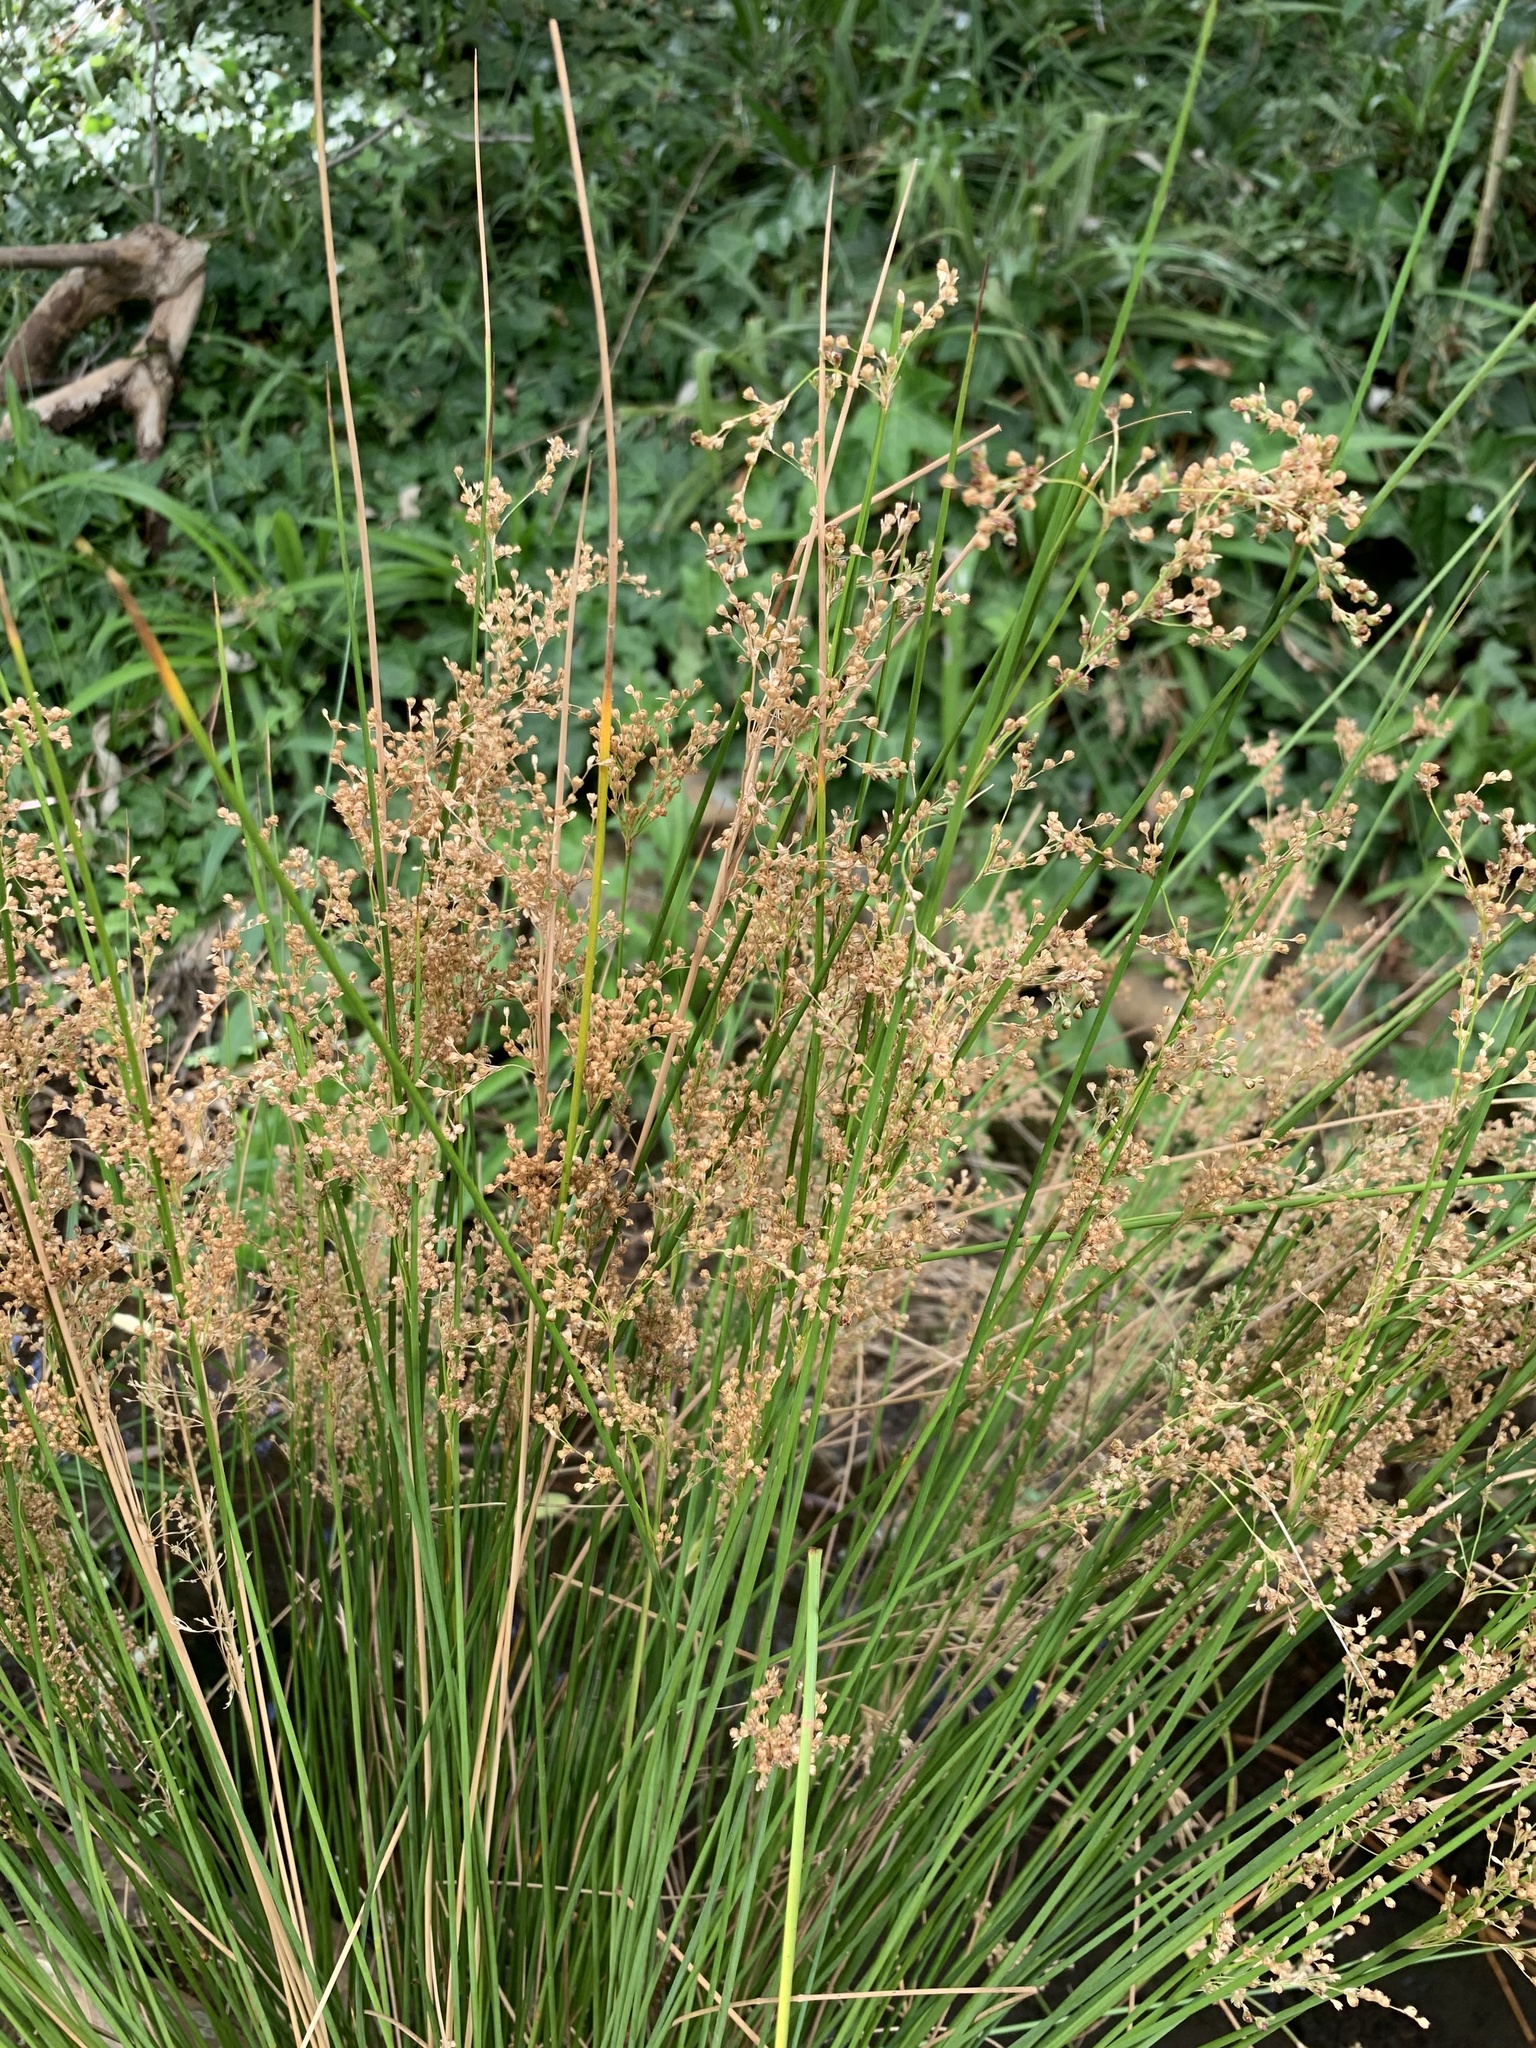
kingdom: Plantae
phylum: Tracheophyta
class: Liliopsida
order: Poales
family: Juncaceae
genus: Juncus
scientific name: Juncus effusus
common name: Soft rush
